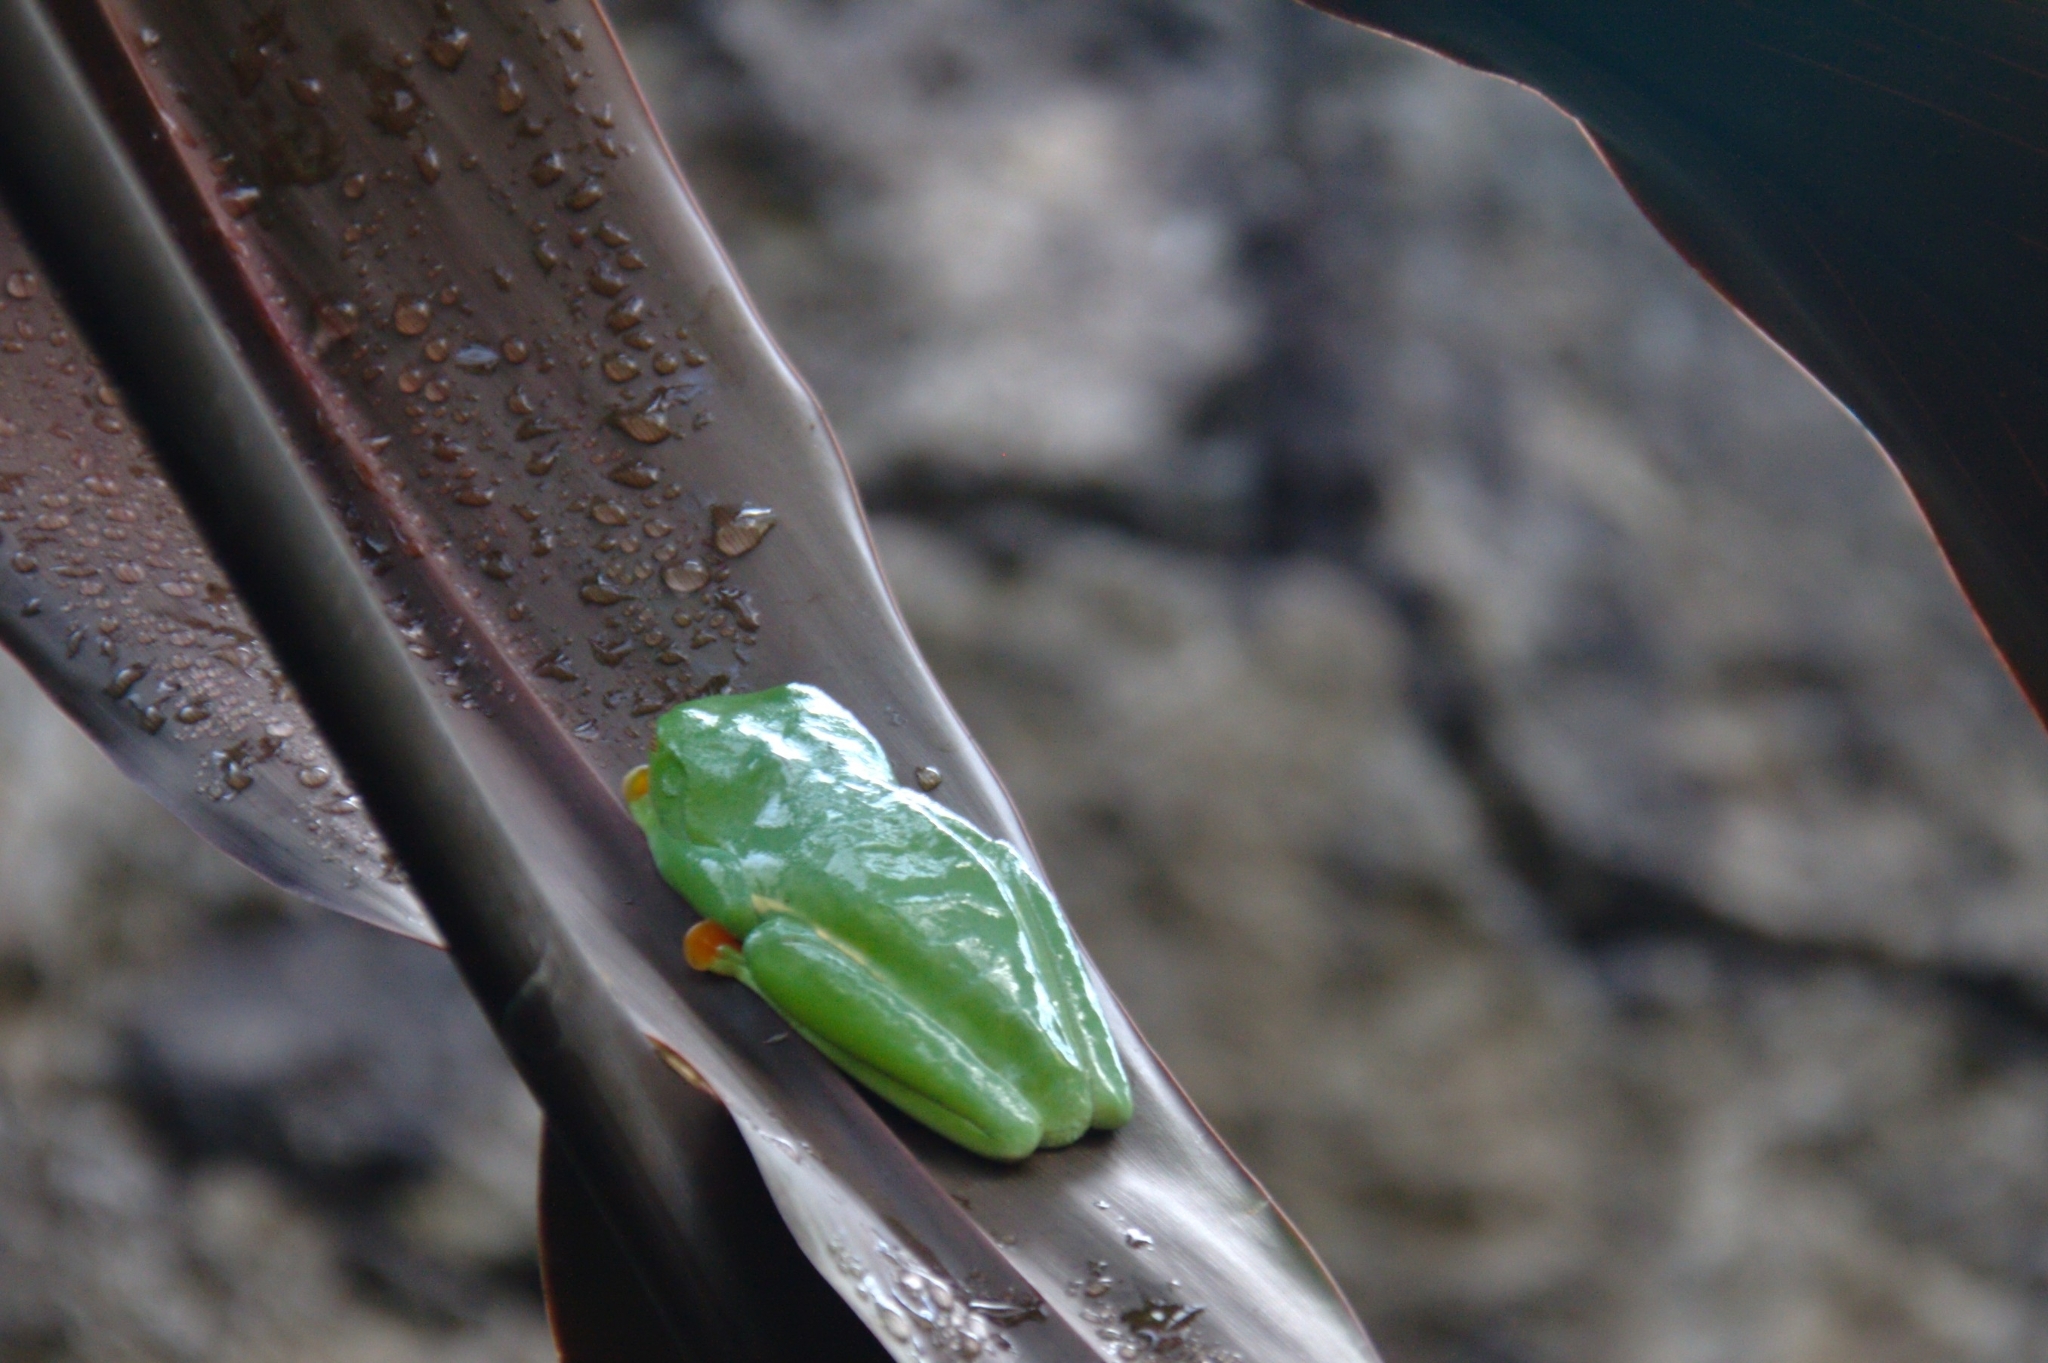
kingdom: Animalia
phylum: Chordata
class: Amphibia
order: Anura
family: Phyllomedusidae
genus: Agalychnis
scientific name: Agalychnis callidryas
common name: Red-eyed treefrog
